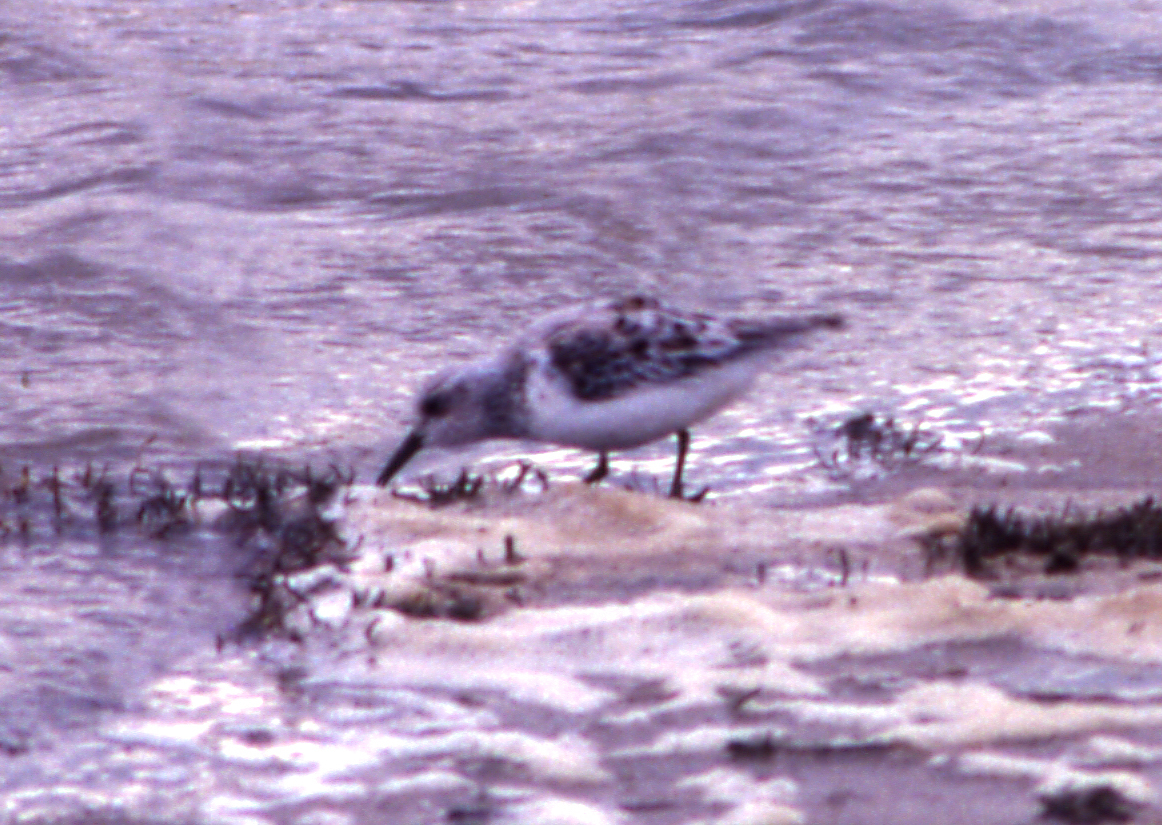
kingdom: Animalia
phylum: Chordata
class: Aves
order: Charadriiformes
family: Scolopacidae
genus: Calidris
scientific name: Calidris alba
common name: Sanderling
